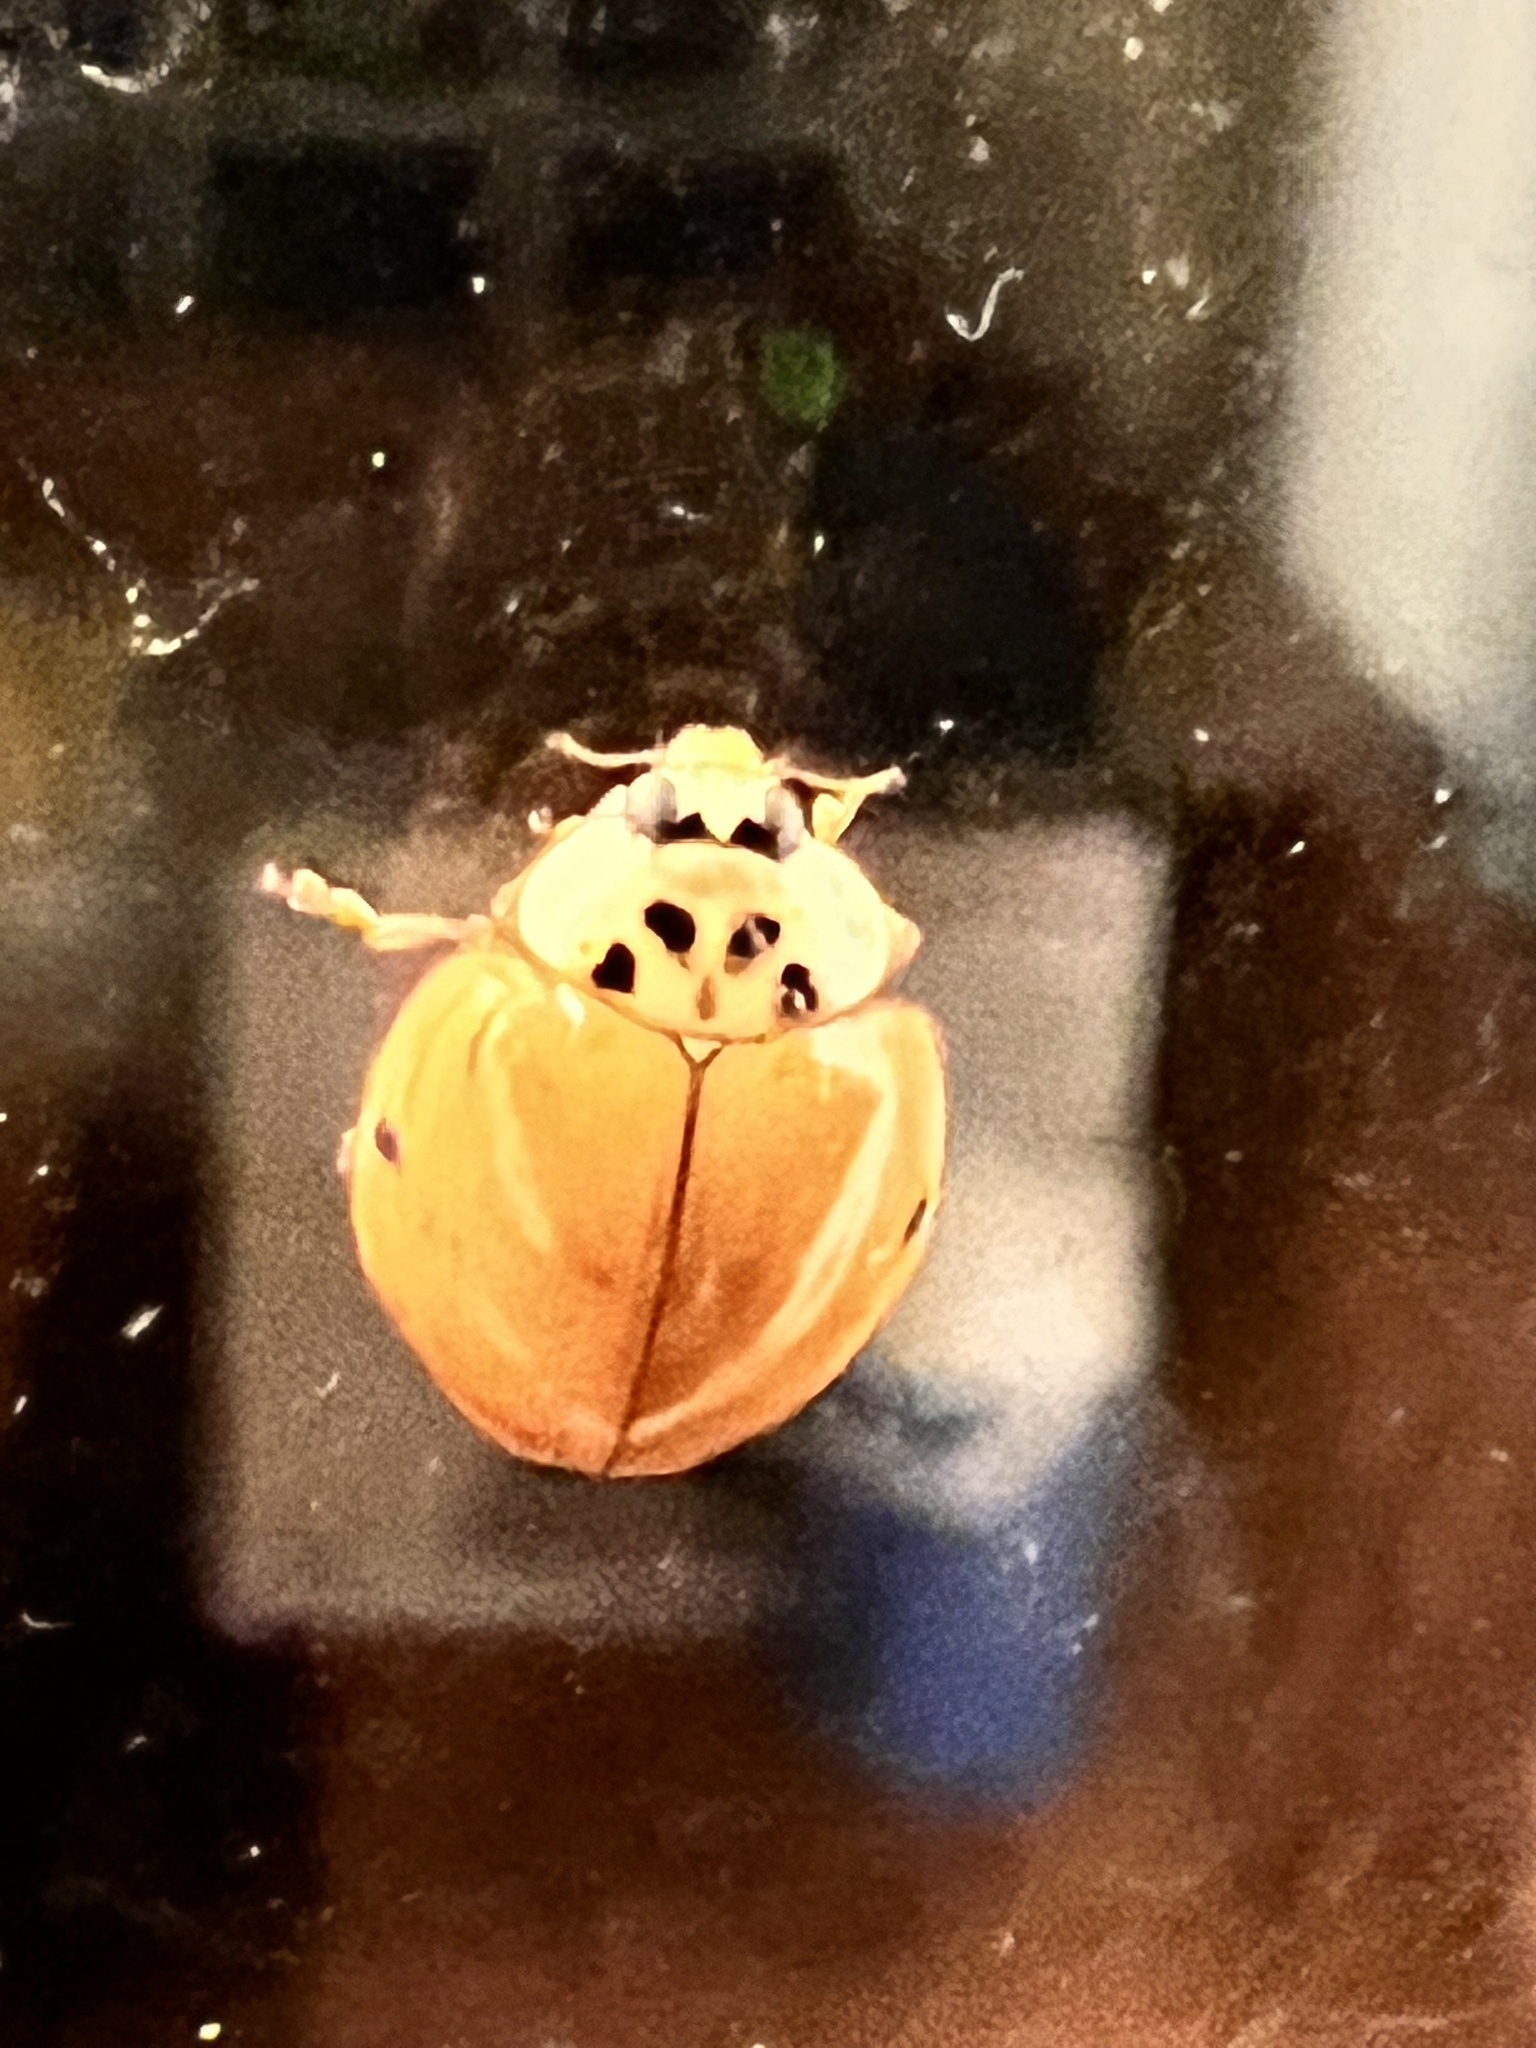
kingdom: Animalia
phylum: Arthropoda
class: Insecta
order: Coleoptera
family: Coccinellidae
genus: Harmonia
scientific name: Harmonia axyridis
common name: Harlequin ladybird
